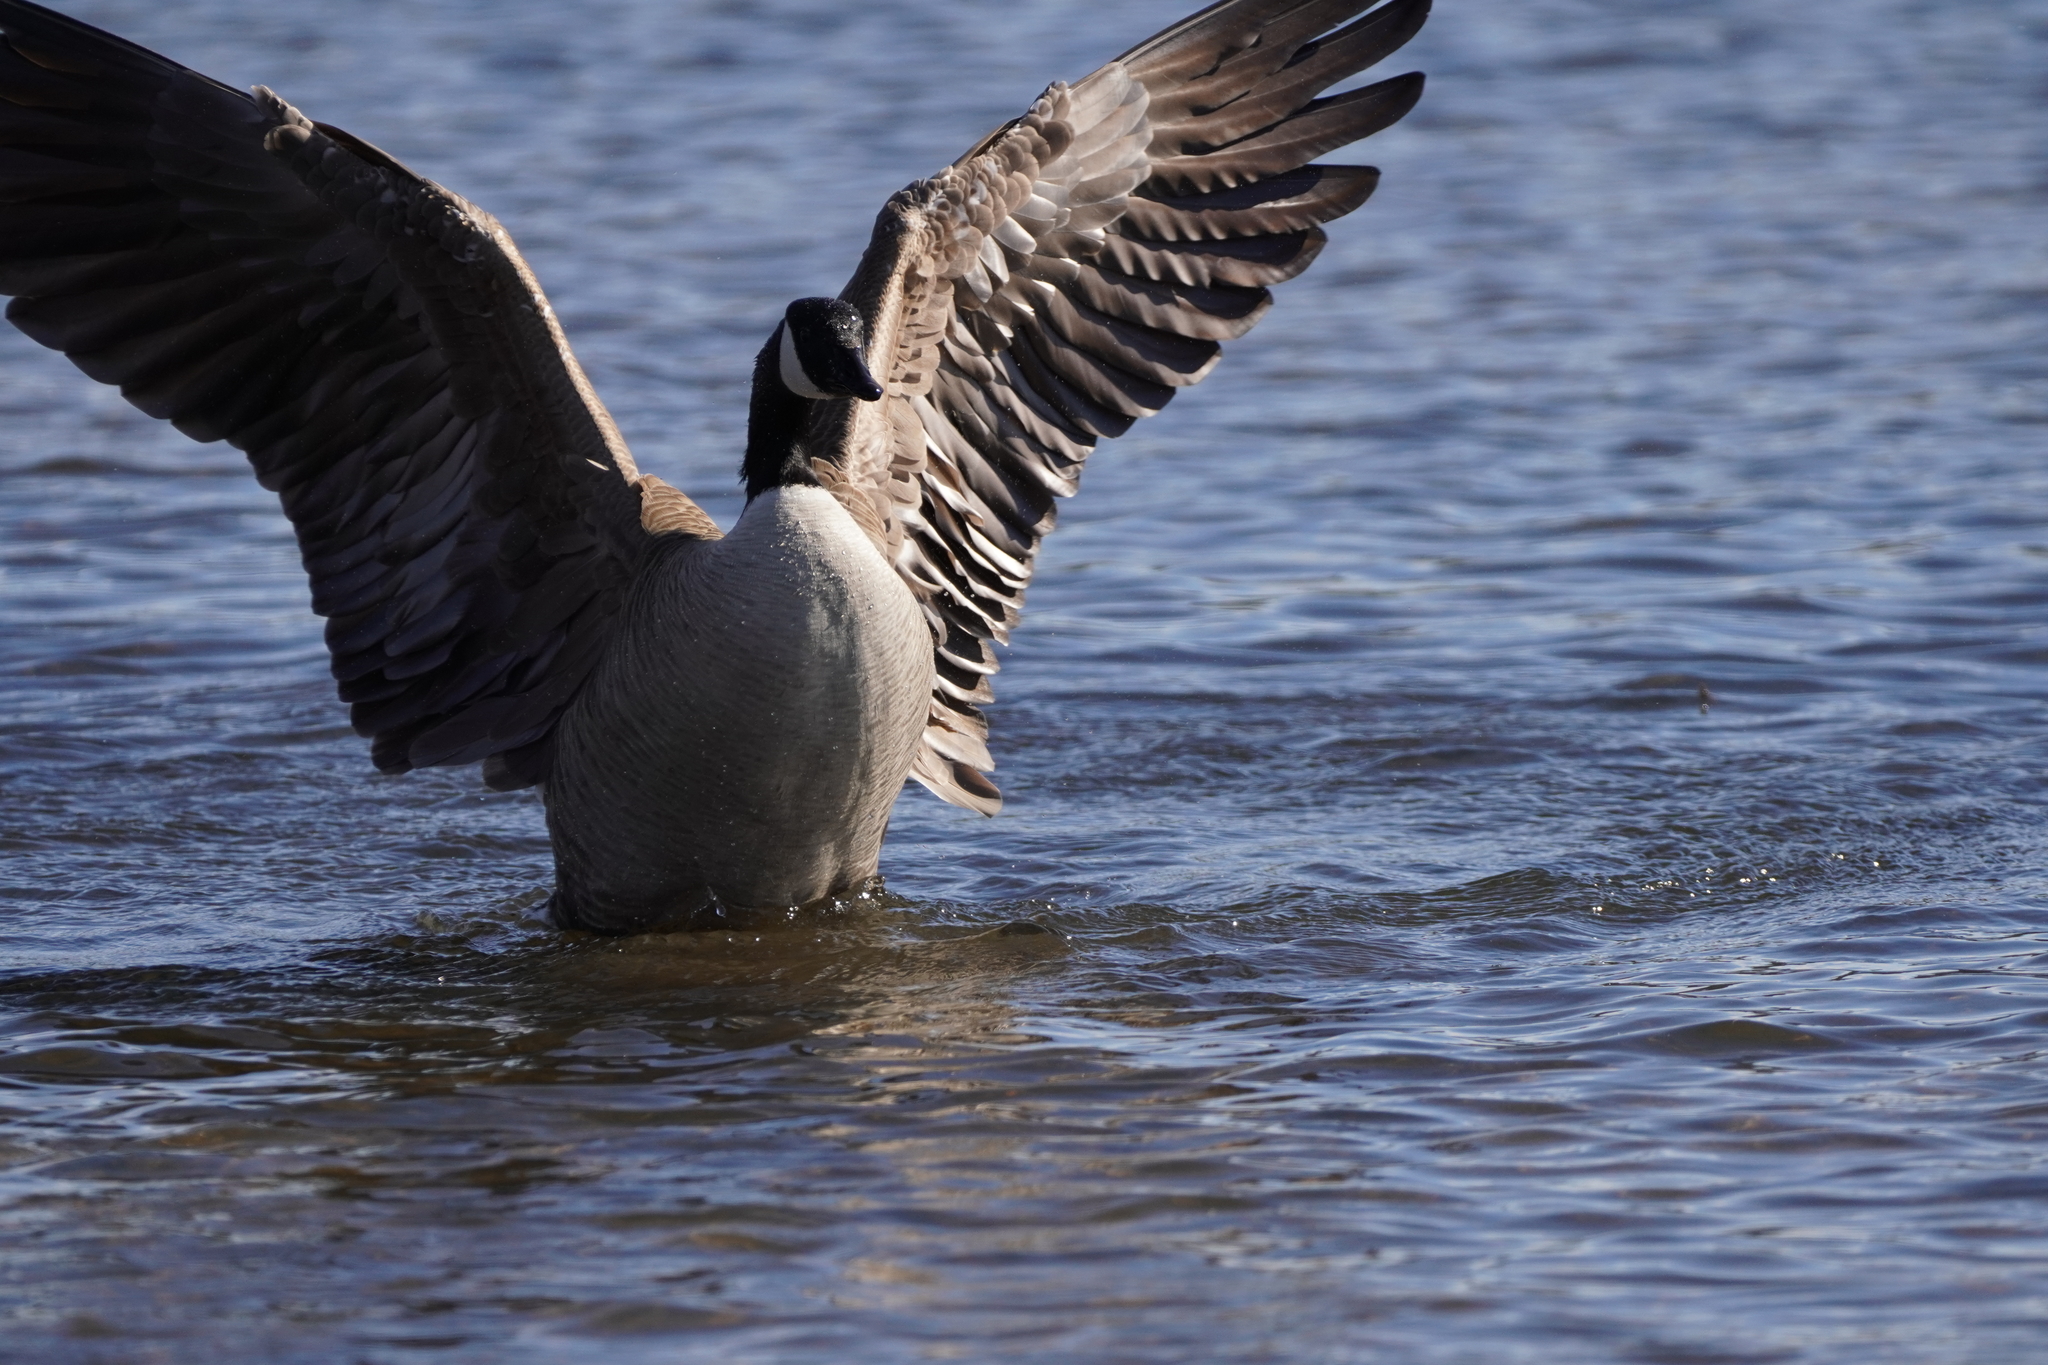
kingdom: Animalia
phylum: Chordata
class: Aves
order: Anseriformes
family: Anatidae
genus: Branta
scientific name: Branta canadensis
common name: Canada goose
